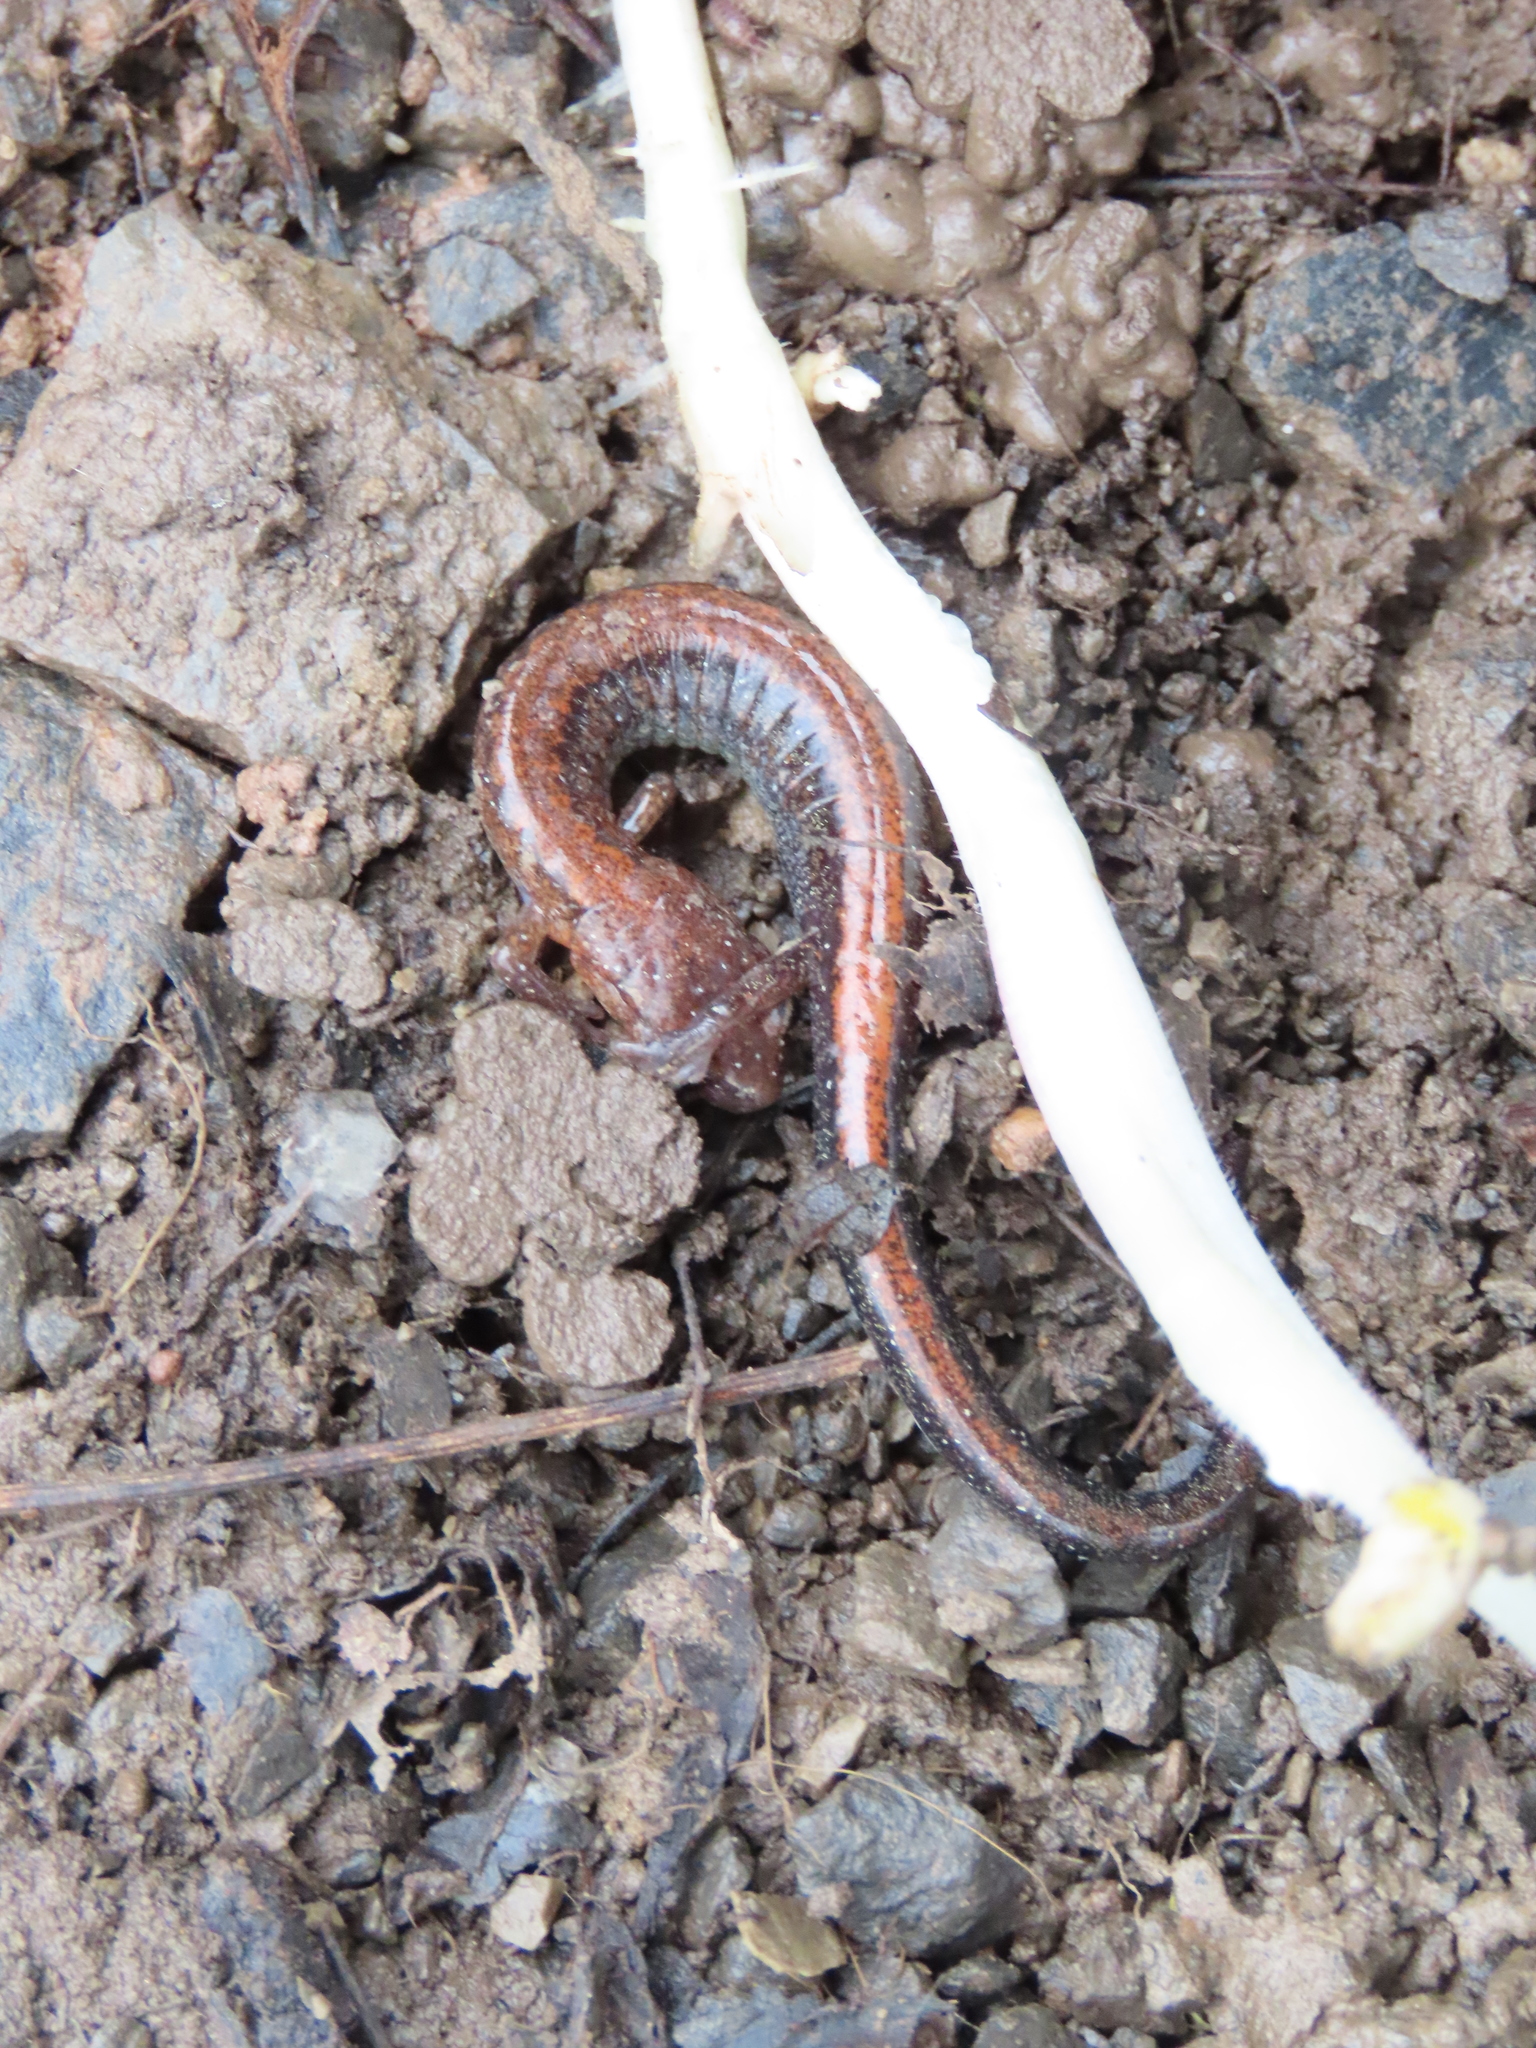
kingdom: Animalia
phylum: Chordata
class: Amphibia
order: Caudata
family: Plethodontidae
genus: Plethodon
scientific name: Plethodon cinereus
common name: Redback salamander
